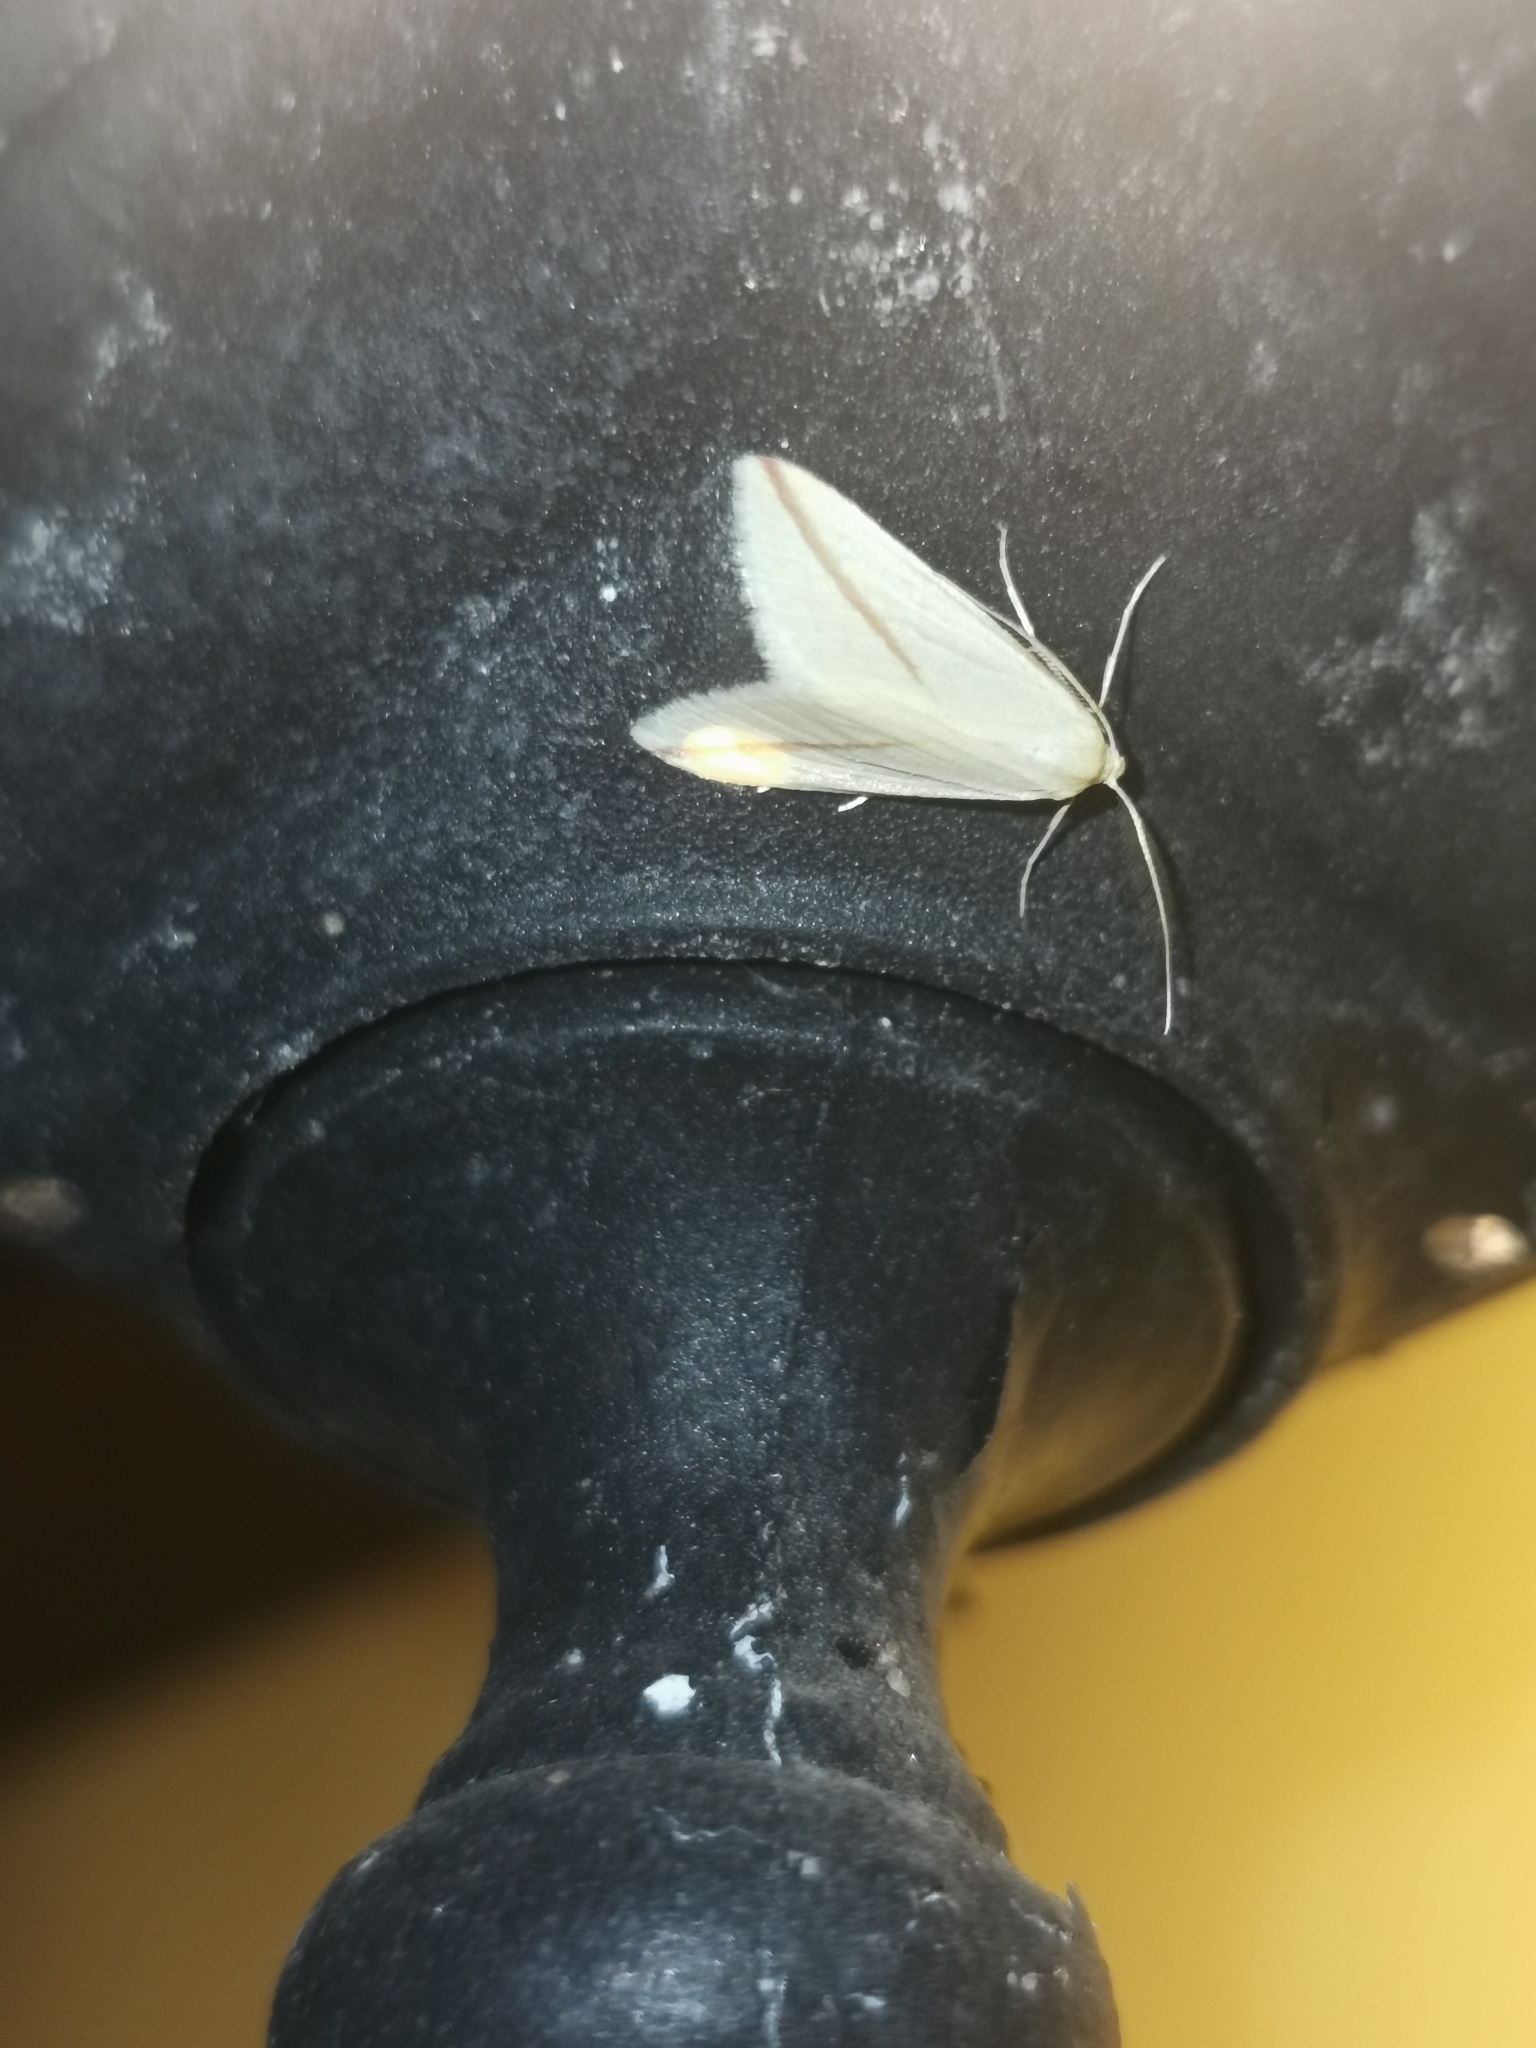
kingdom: Animalia
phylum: Arthropoda
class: Insecta
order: Lepidoptera
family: Geometridae
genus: Rhodometra
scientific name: Rhodometra sacraria
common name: Vestal
